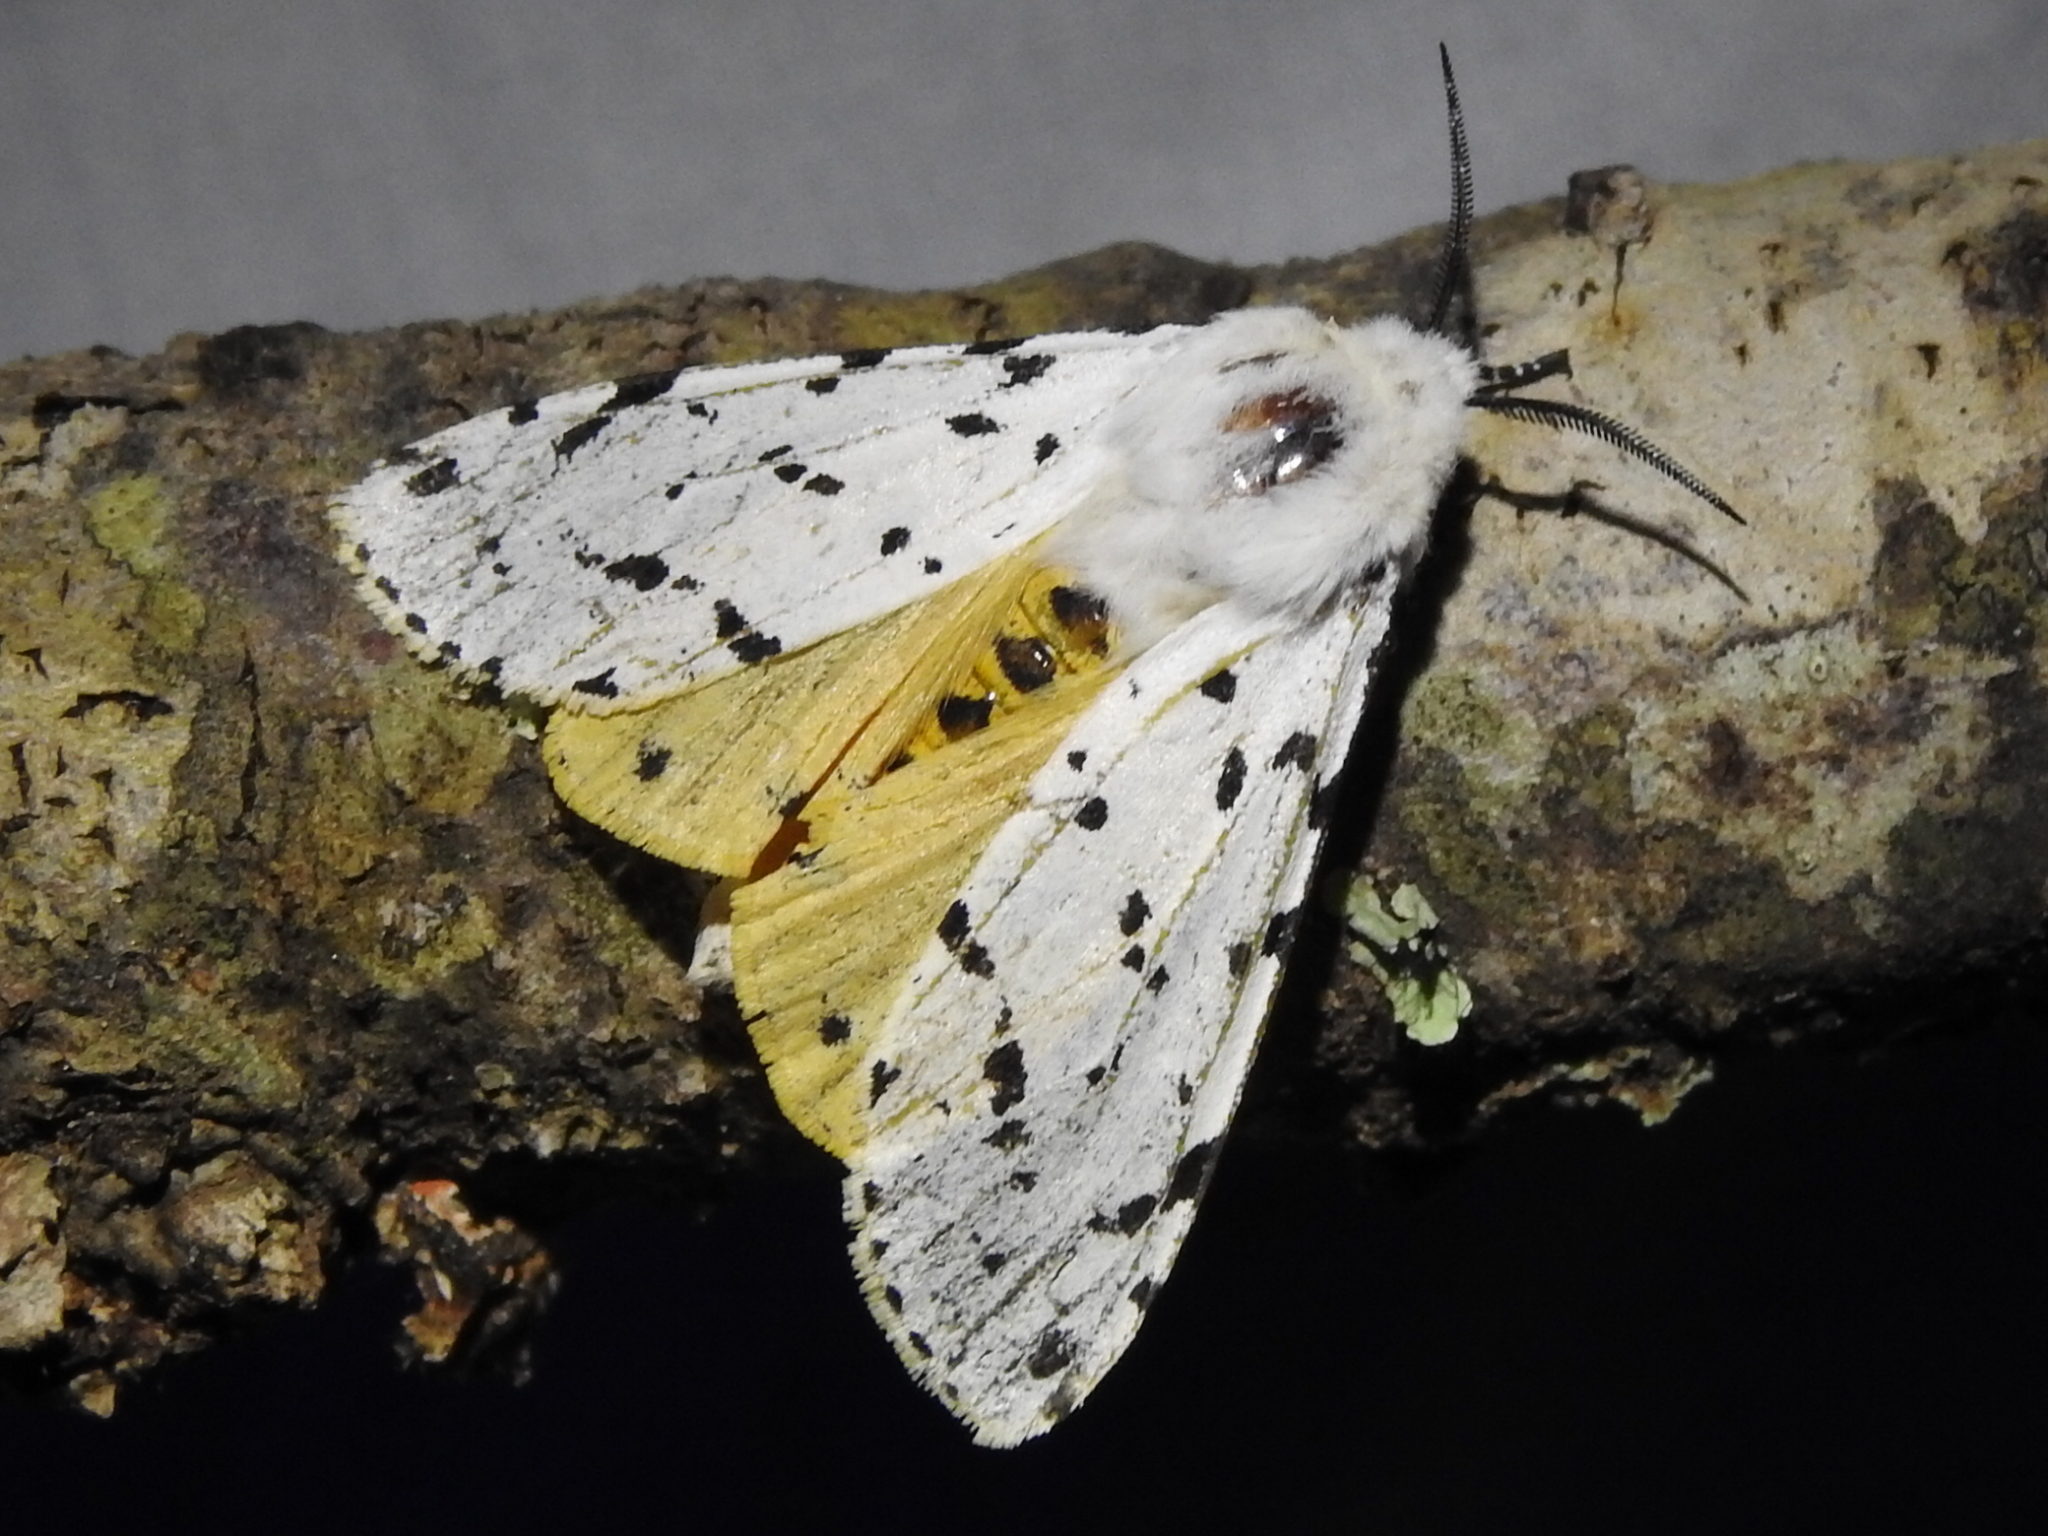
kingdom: Animalia
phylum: Arthropoda
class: Insecta
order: Lepidoptera
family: Erebidae
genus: Estigmene
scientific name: Estigmene acrea
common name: Salt marsh moth
